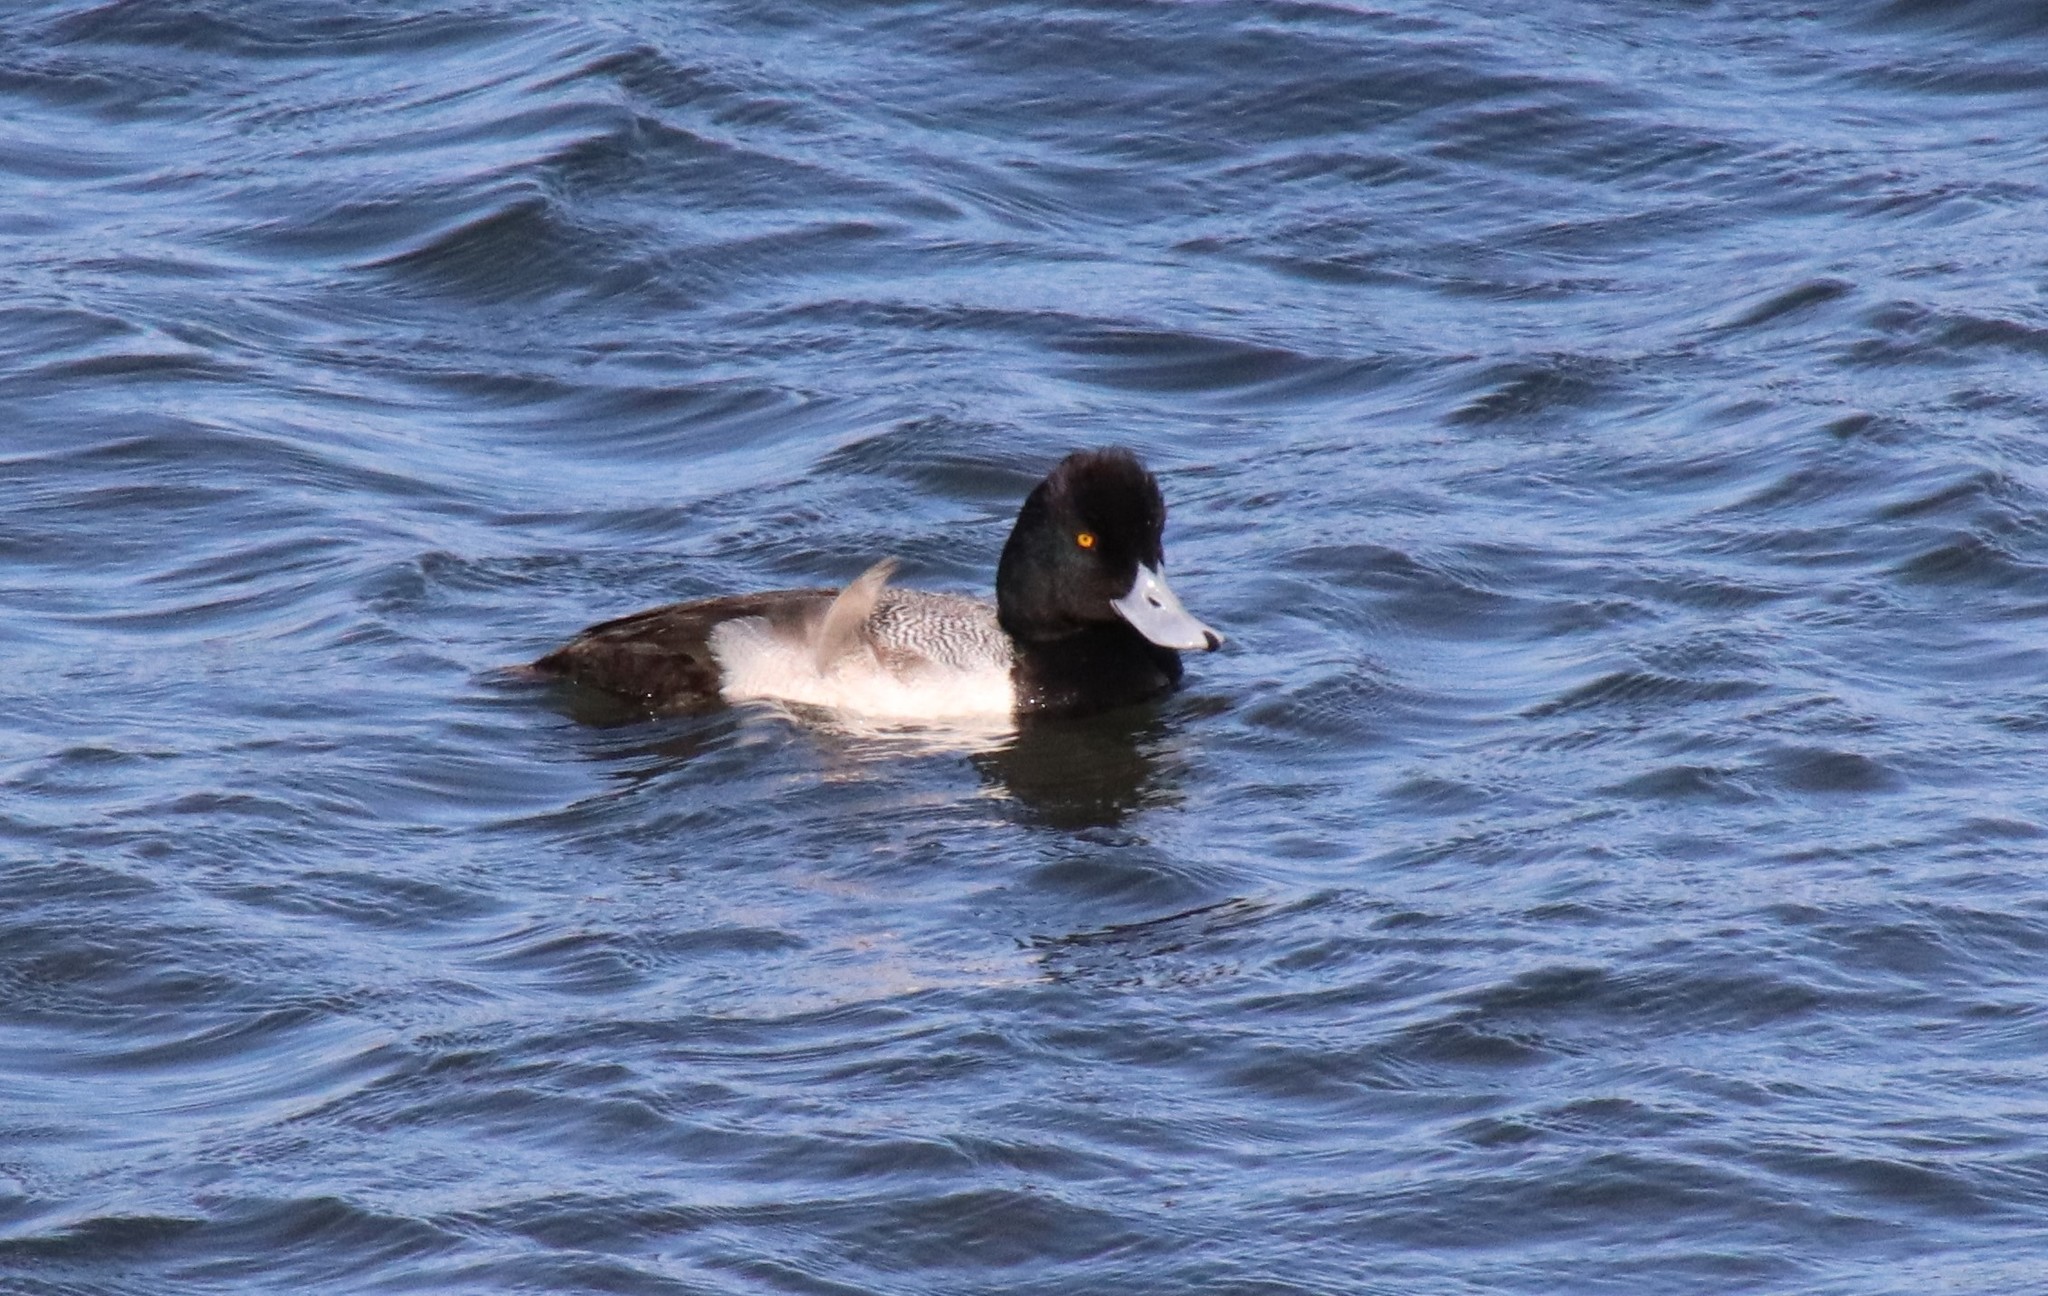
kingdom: Animalia
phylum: Chordata
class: Aves
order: Anseriformes
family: Anatidae
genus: Aythya
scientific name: Aythya affinis
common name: Lesser scaup
